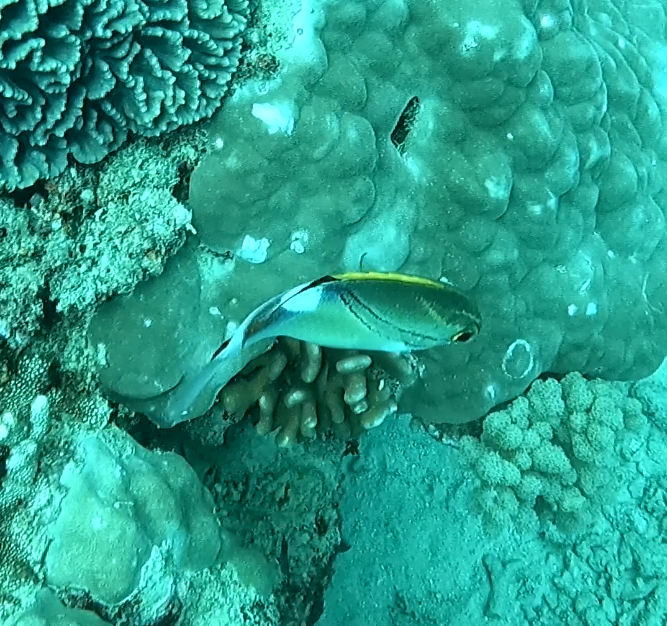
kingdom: Animalia
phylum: Chordata
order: Perciformes
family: Nemipteridae
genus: Scolopsis
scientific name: Scolopsis bilineata
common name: Two-lined monocle bream
